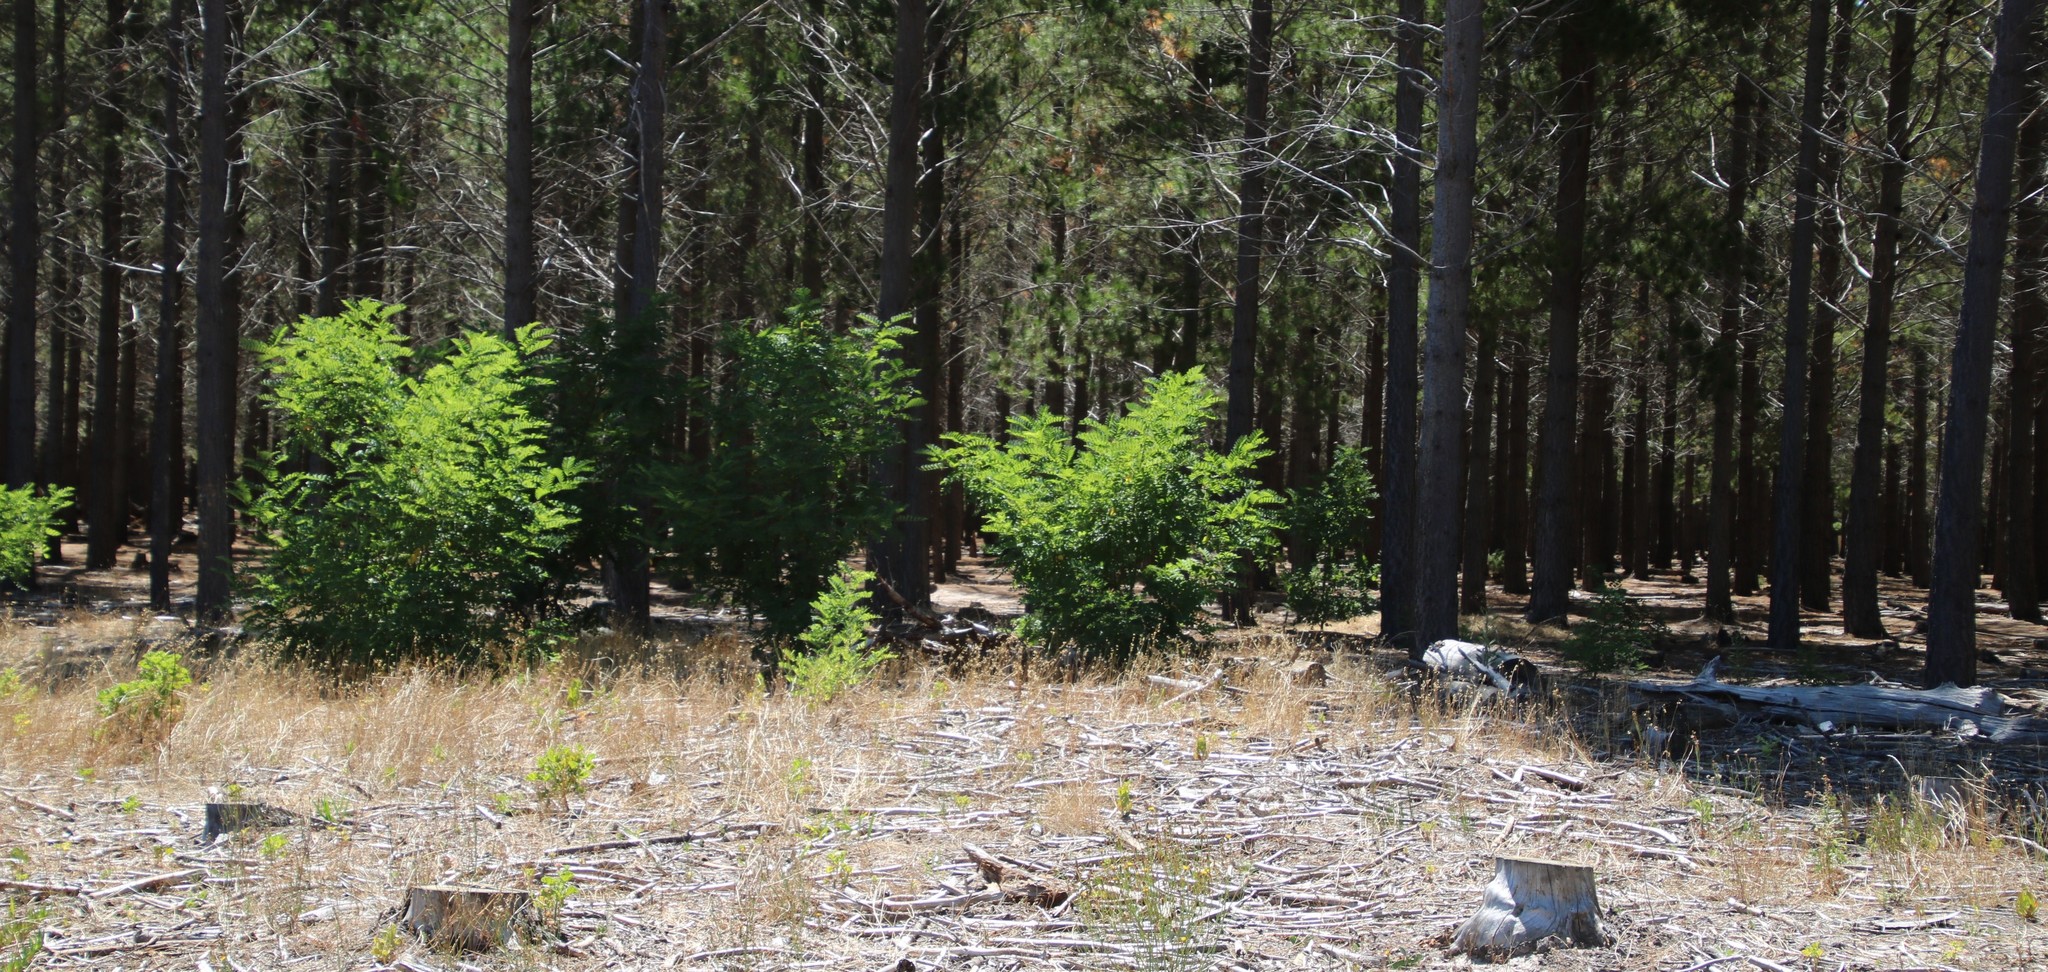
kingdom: Plantae
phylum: Tracheophyta
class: Magnoliopsida
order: Fabales
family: Fabaceae
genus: Robinia
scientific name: Robinia pseudoacacia
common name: Black locust
